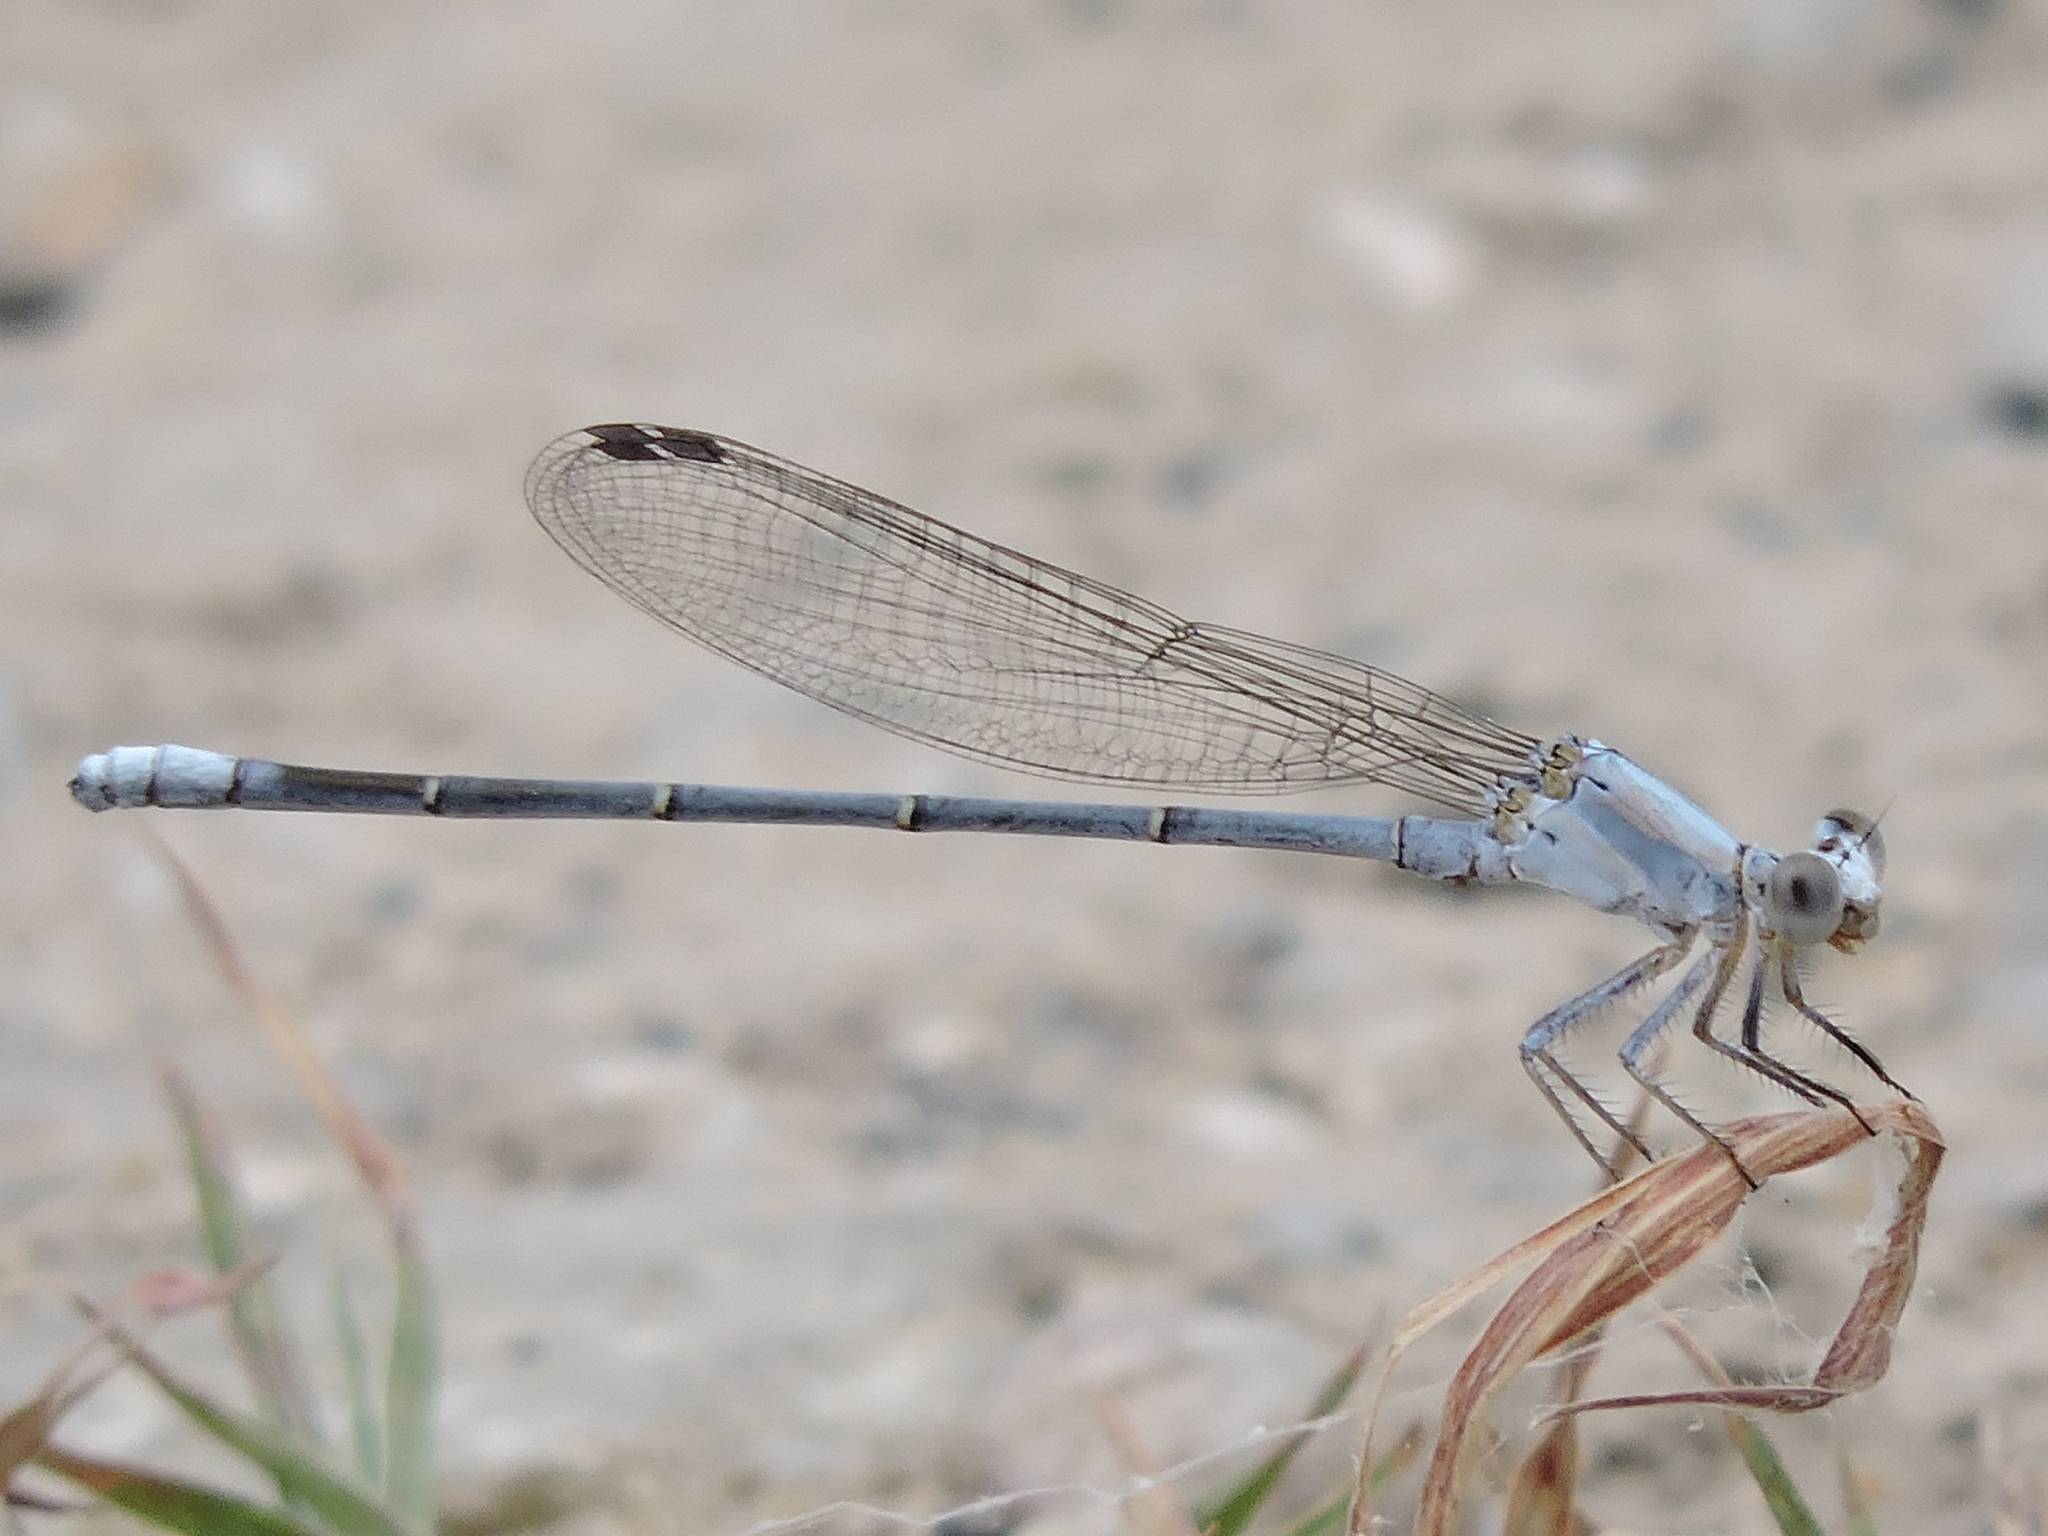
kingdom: Animalia
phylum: Arthropoda
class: Insecta
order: Odonata
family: Coenagrionidae
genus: Argia
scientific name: Argia moesta
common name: Powdered dancer
